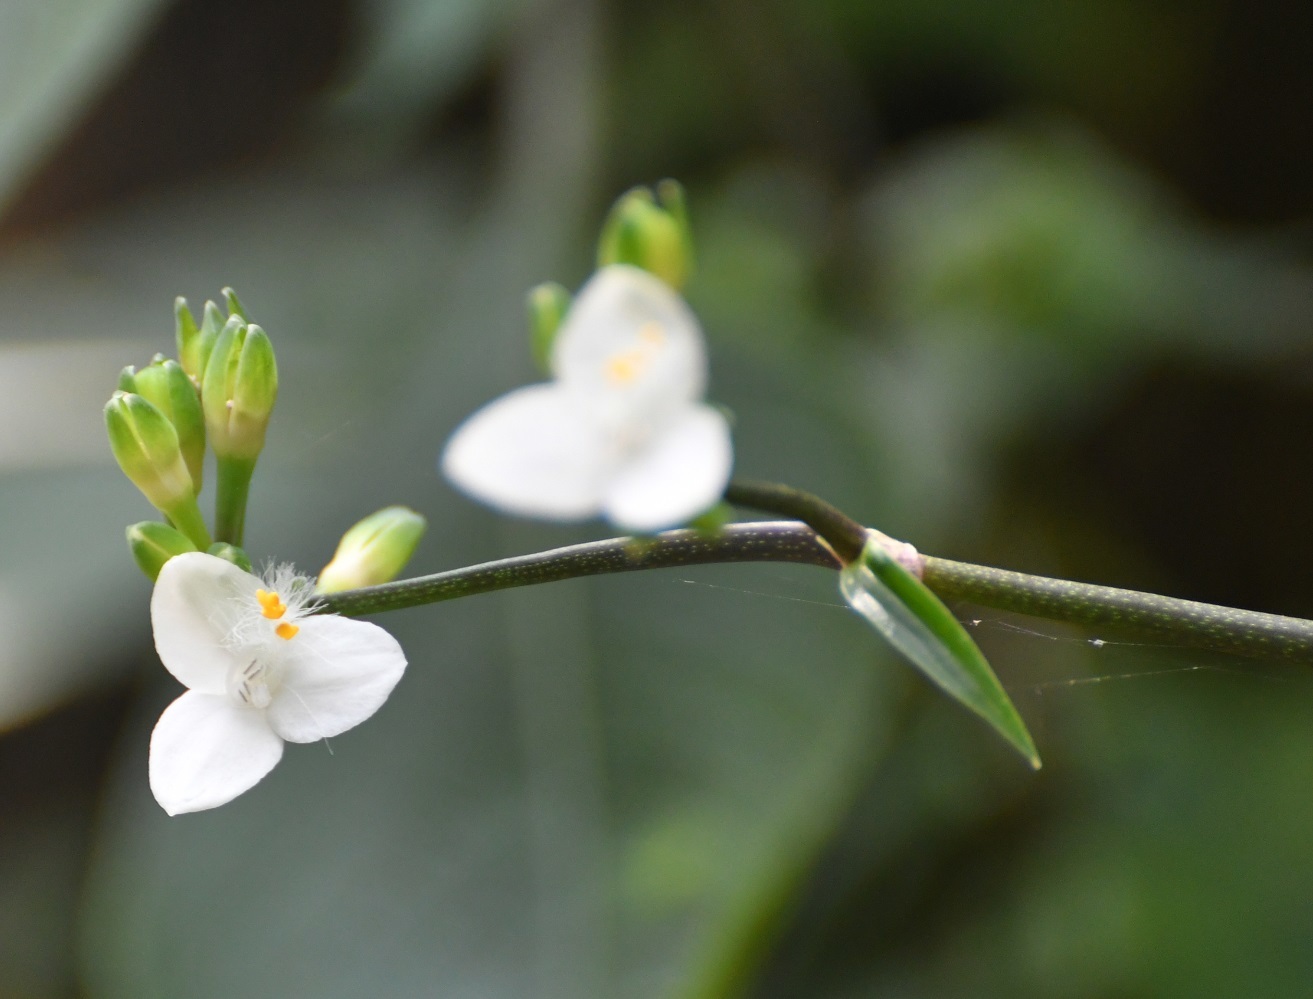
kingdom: Plantae
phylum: Tracheophyta
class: Liliopsida
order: Commelinales
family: Commelinaceae
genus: Callisia
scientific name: Callisia grandiflora
